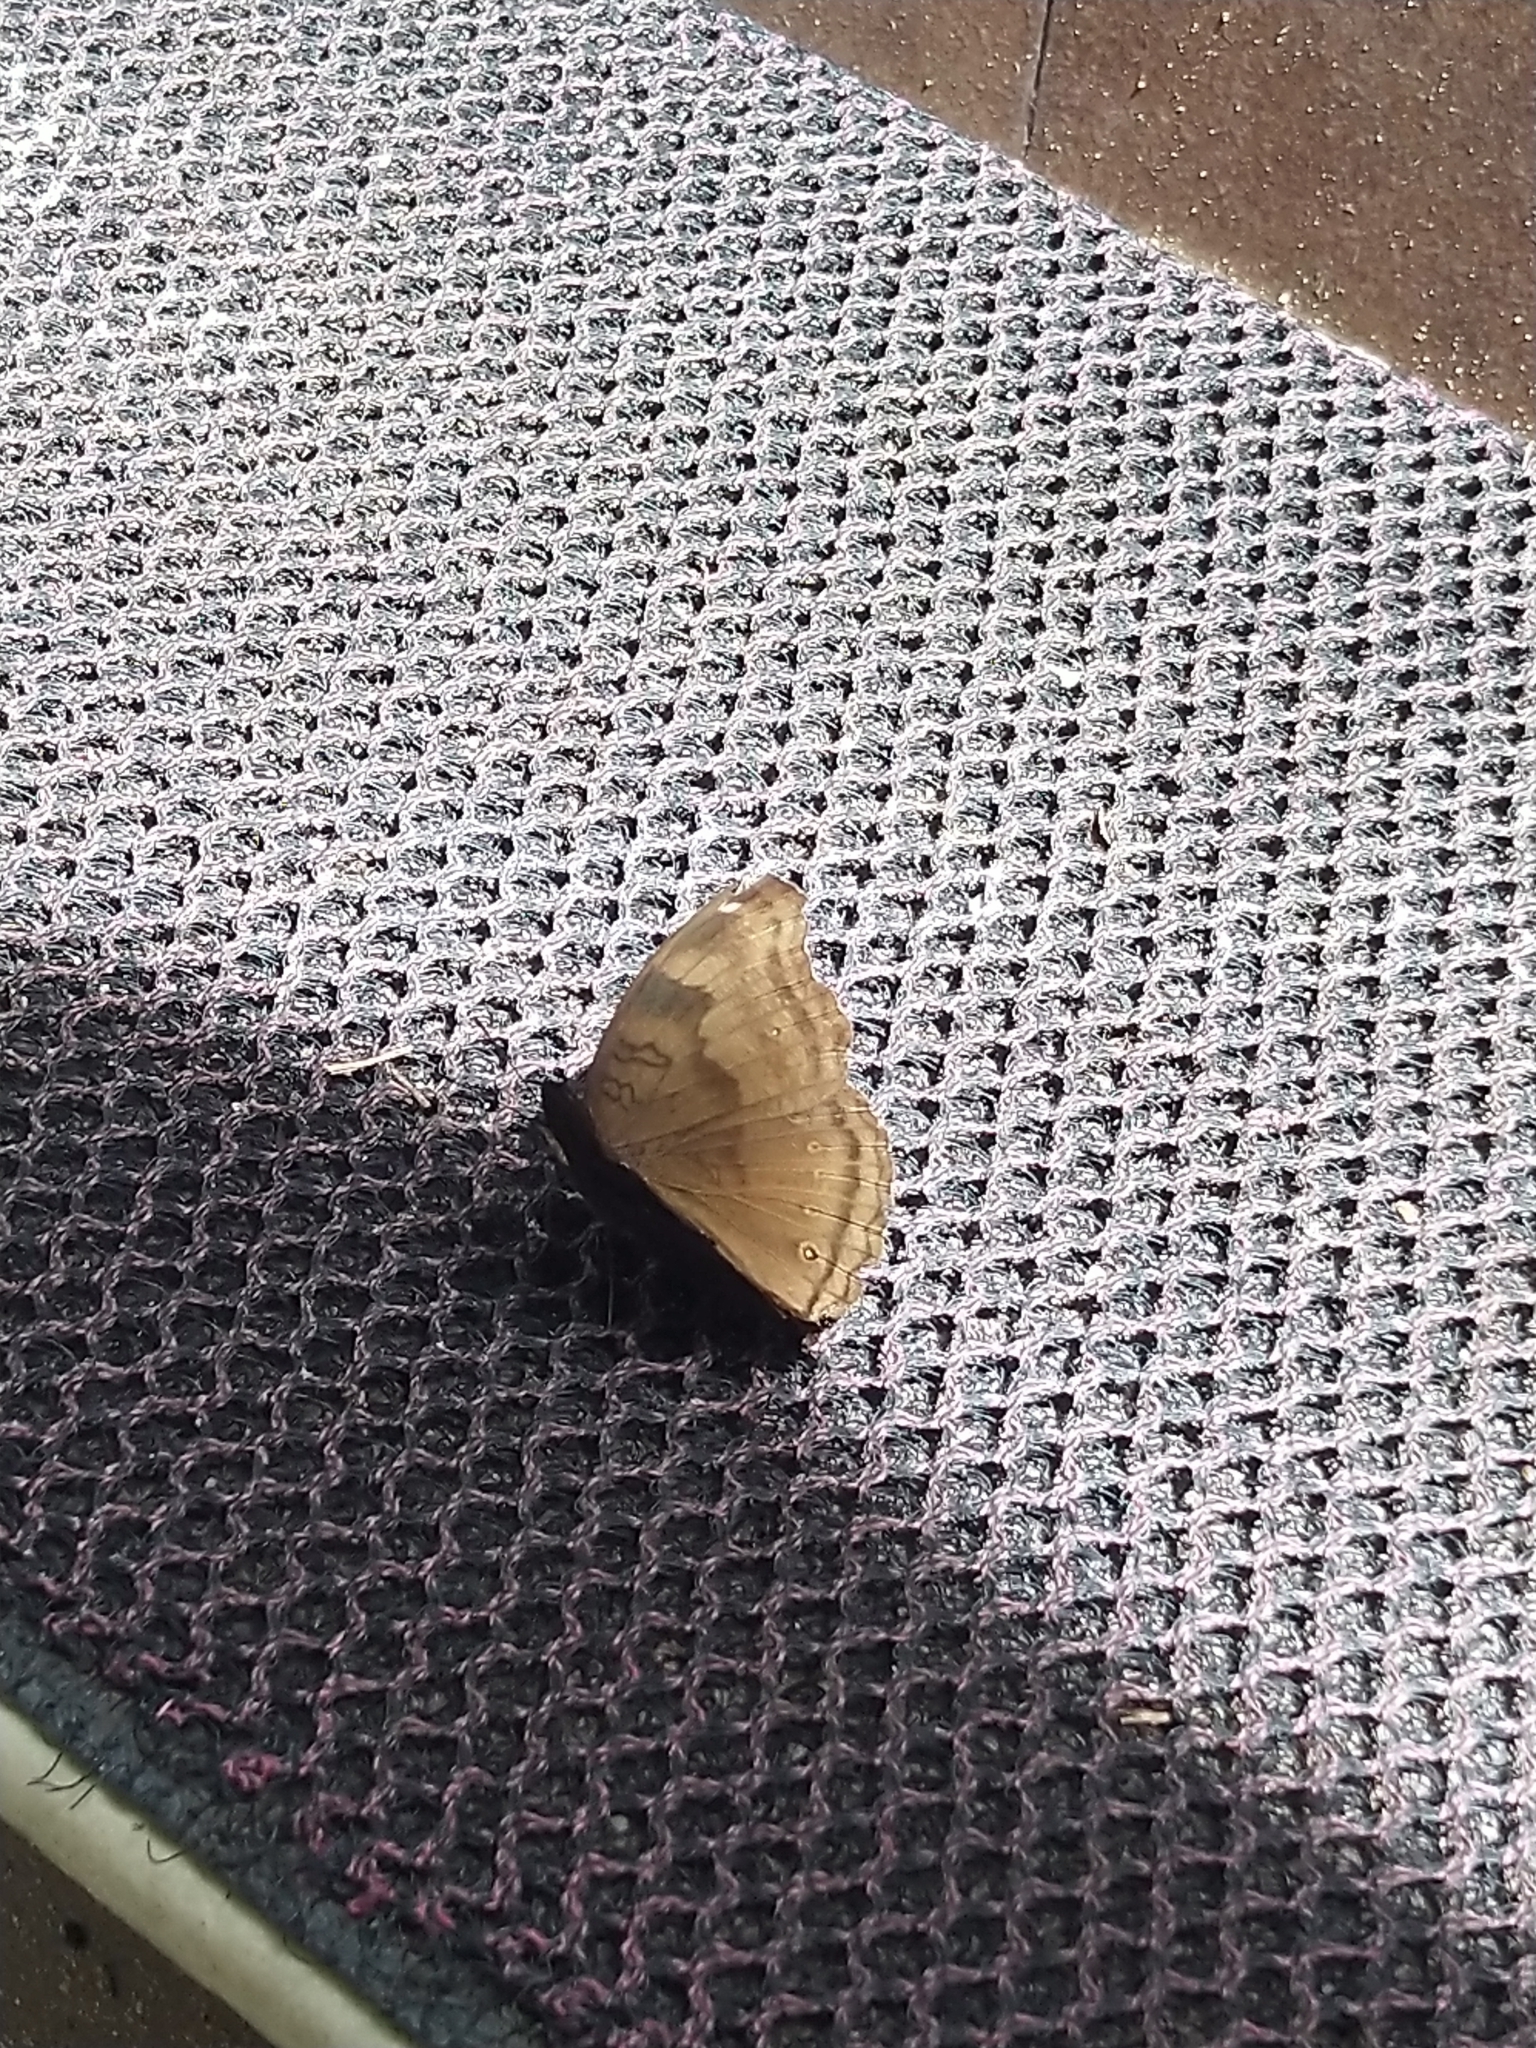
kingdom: Animalia
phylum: Arthropoda
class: Insecta
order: Lepidoptera
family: Nymphalidae
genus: Junonia
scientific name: Junonia iphita
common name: Chocolate pansy
